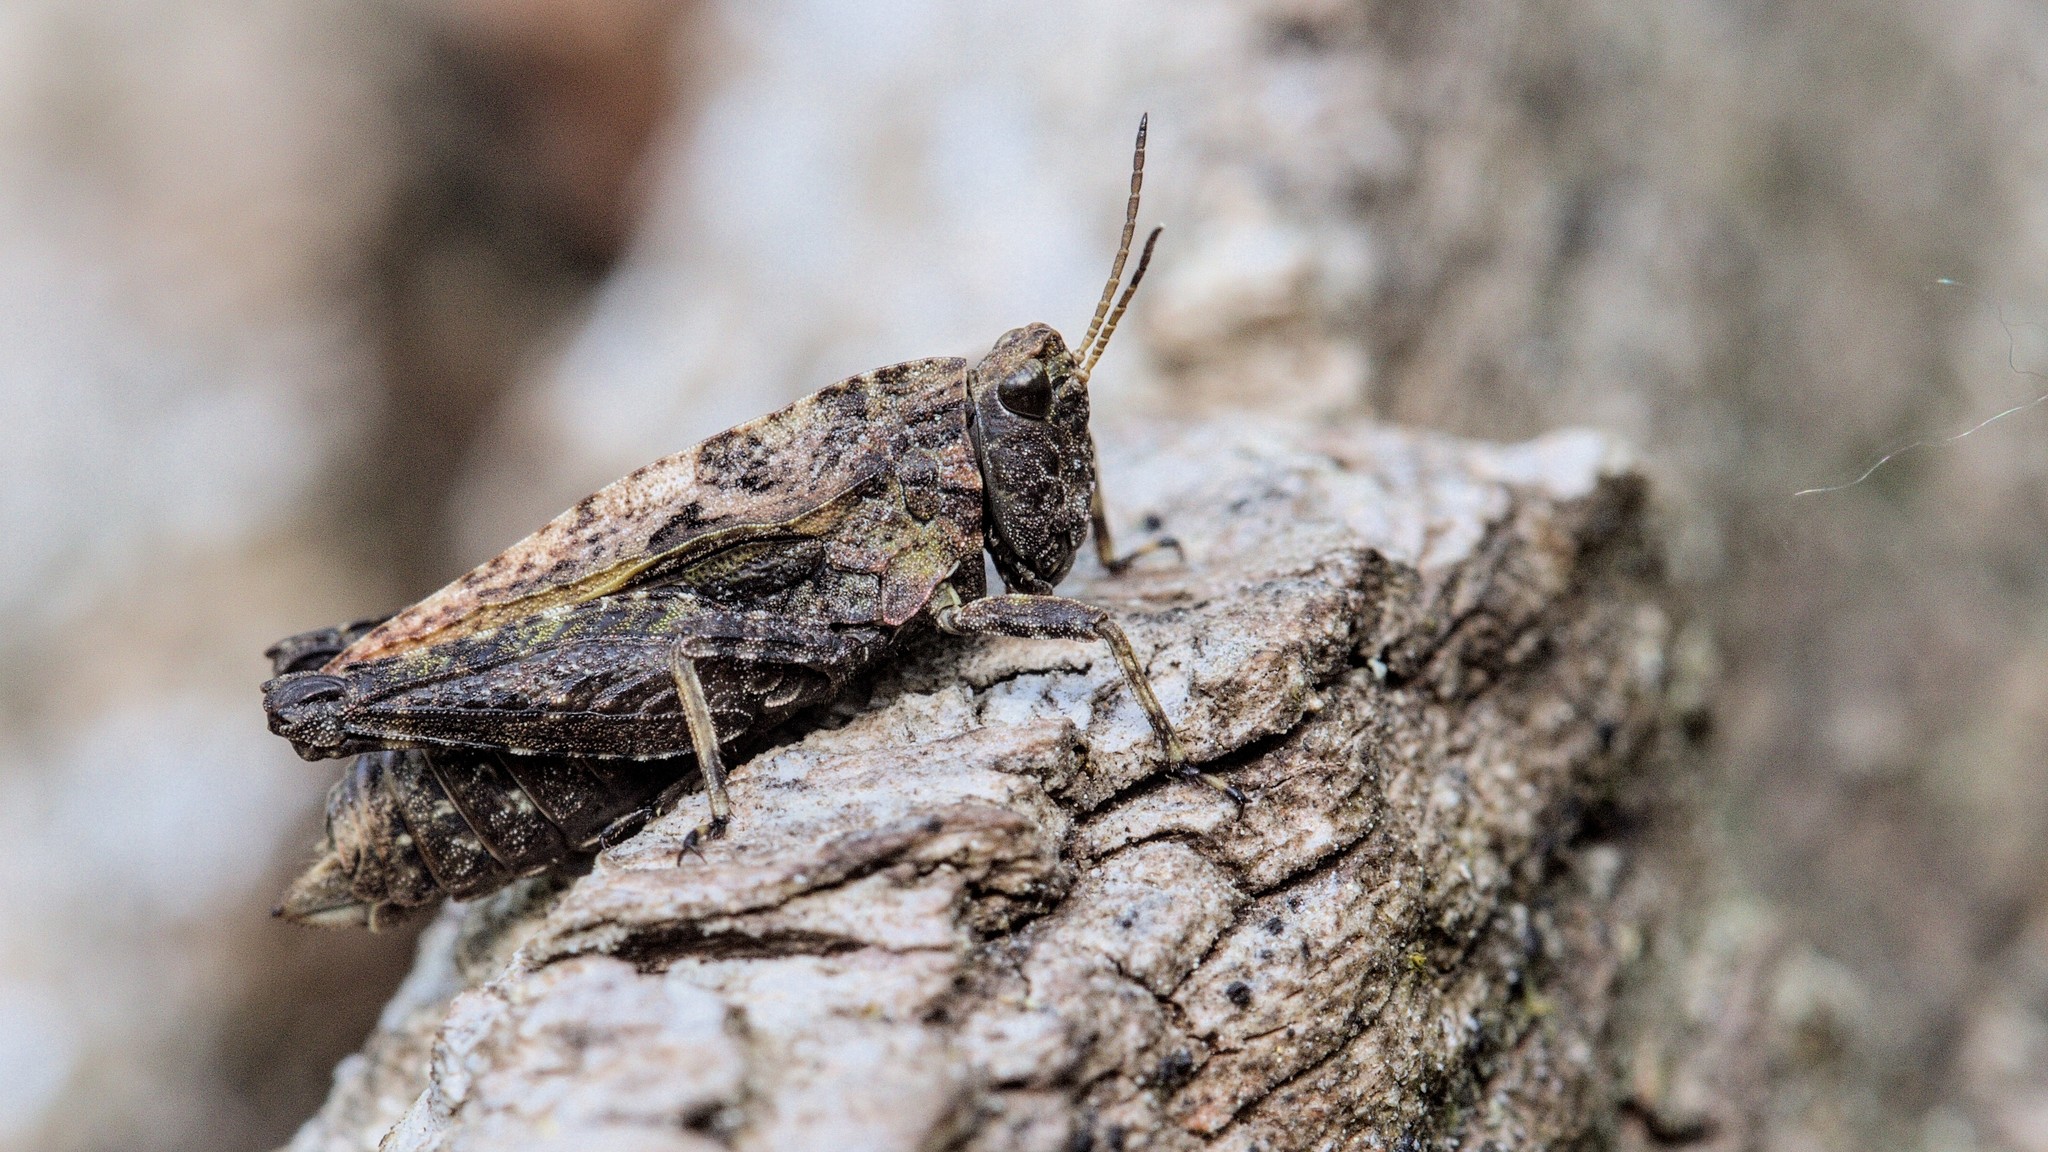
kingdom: Animalia
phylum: Arthropoda
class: Insecta
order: Orthoptera
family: Tetrigidae
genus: Tetrix
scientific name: Tetrix undulata
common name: Common groundhopper
